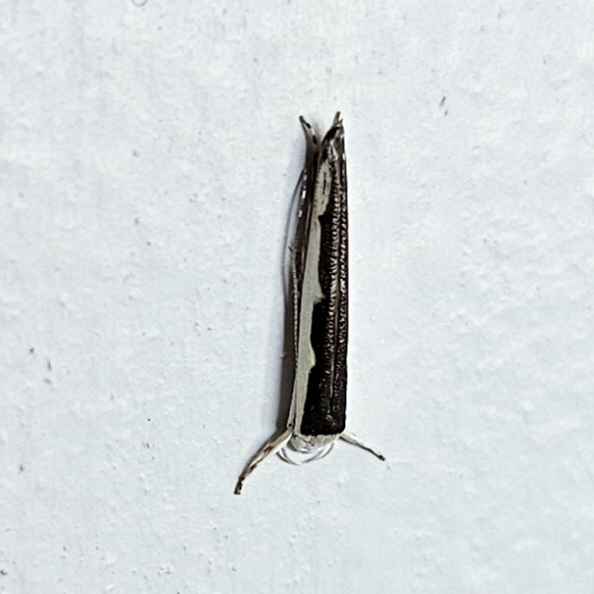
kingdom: Animalia
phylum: Arthropoda
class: Insecta
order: Lepidoptera
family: Roeslerstammiidae
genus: Vanicela
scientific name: Vanicela disjunctella
